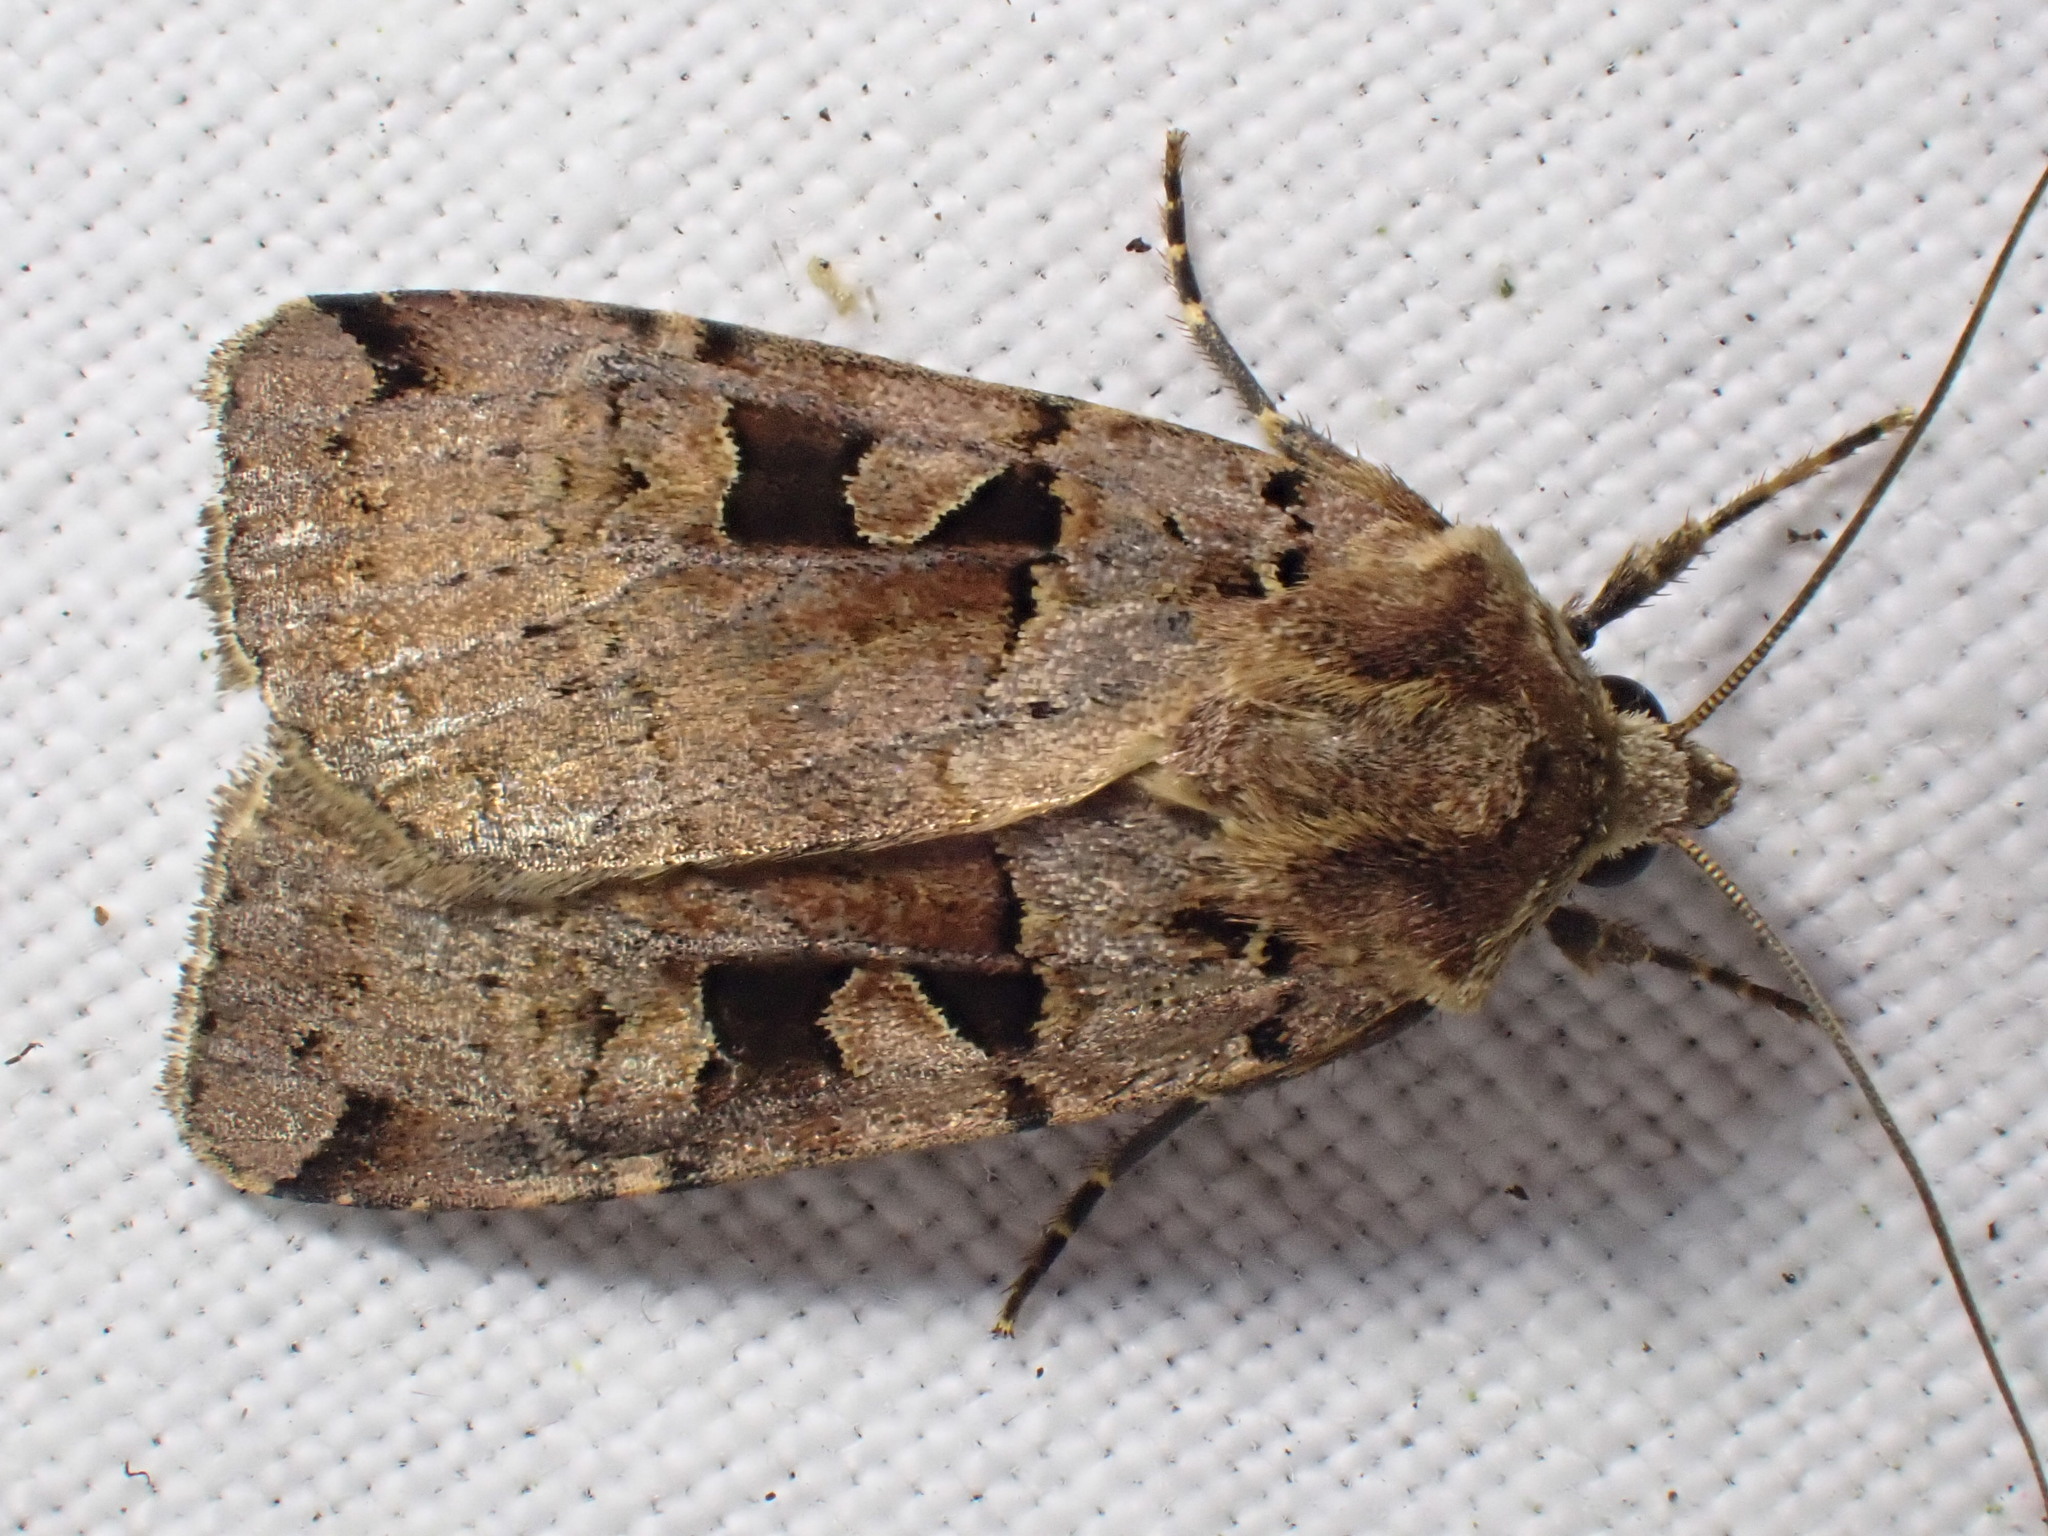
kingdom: Animalia
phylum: Arthropoda
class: Insecta
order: Lepidoptera
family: Noctuidae
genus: Xestia
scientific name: Xestia triangulum
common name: Double square-spot
